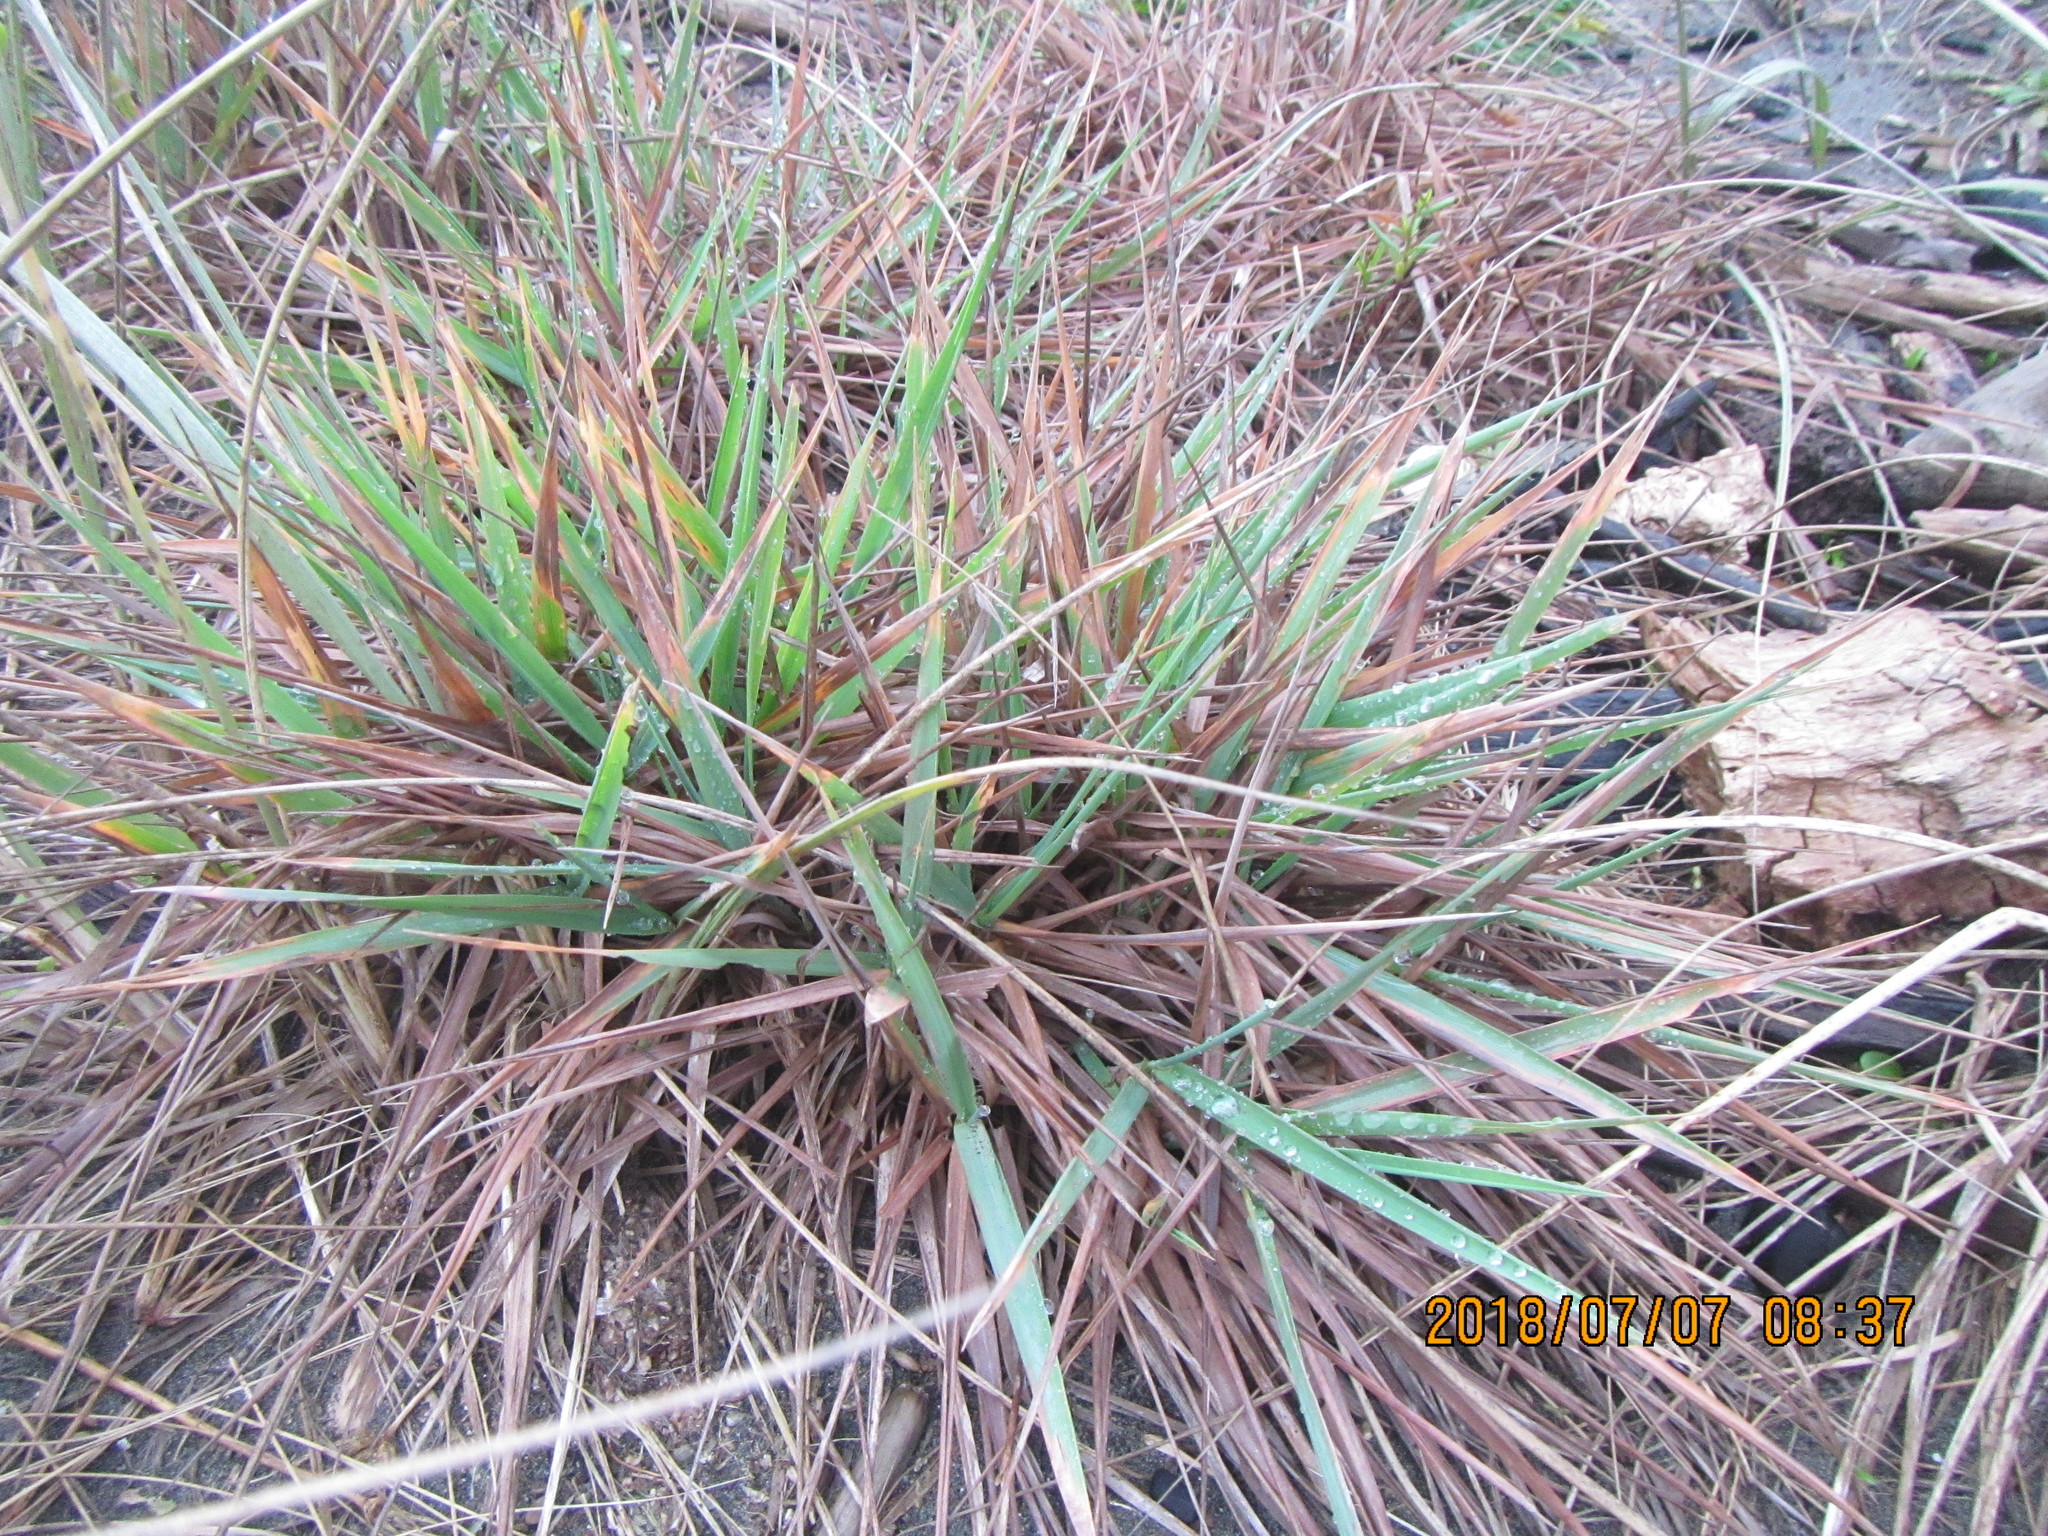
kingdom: Plantae
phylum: Tracheophyta
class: Liliopsida
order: Poales
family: Poaceae
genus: Lachnagrostis
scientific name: Lachnagrostis billardierei
